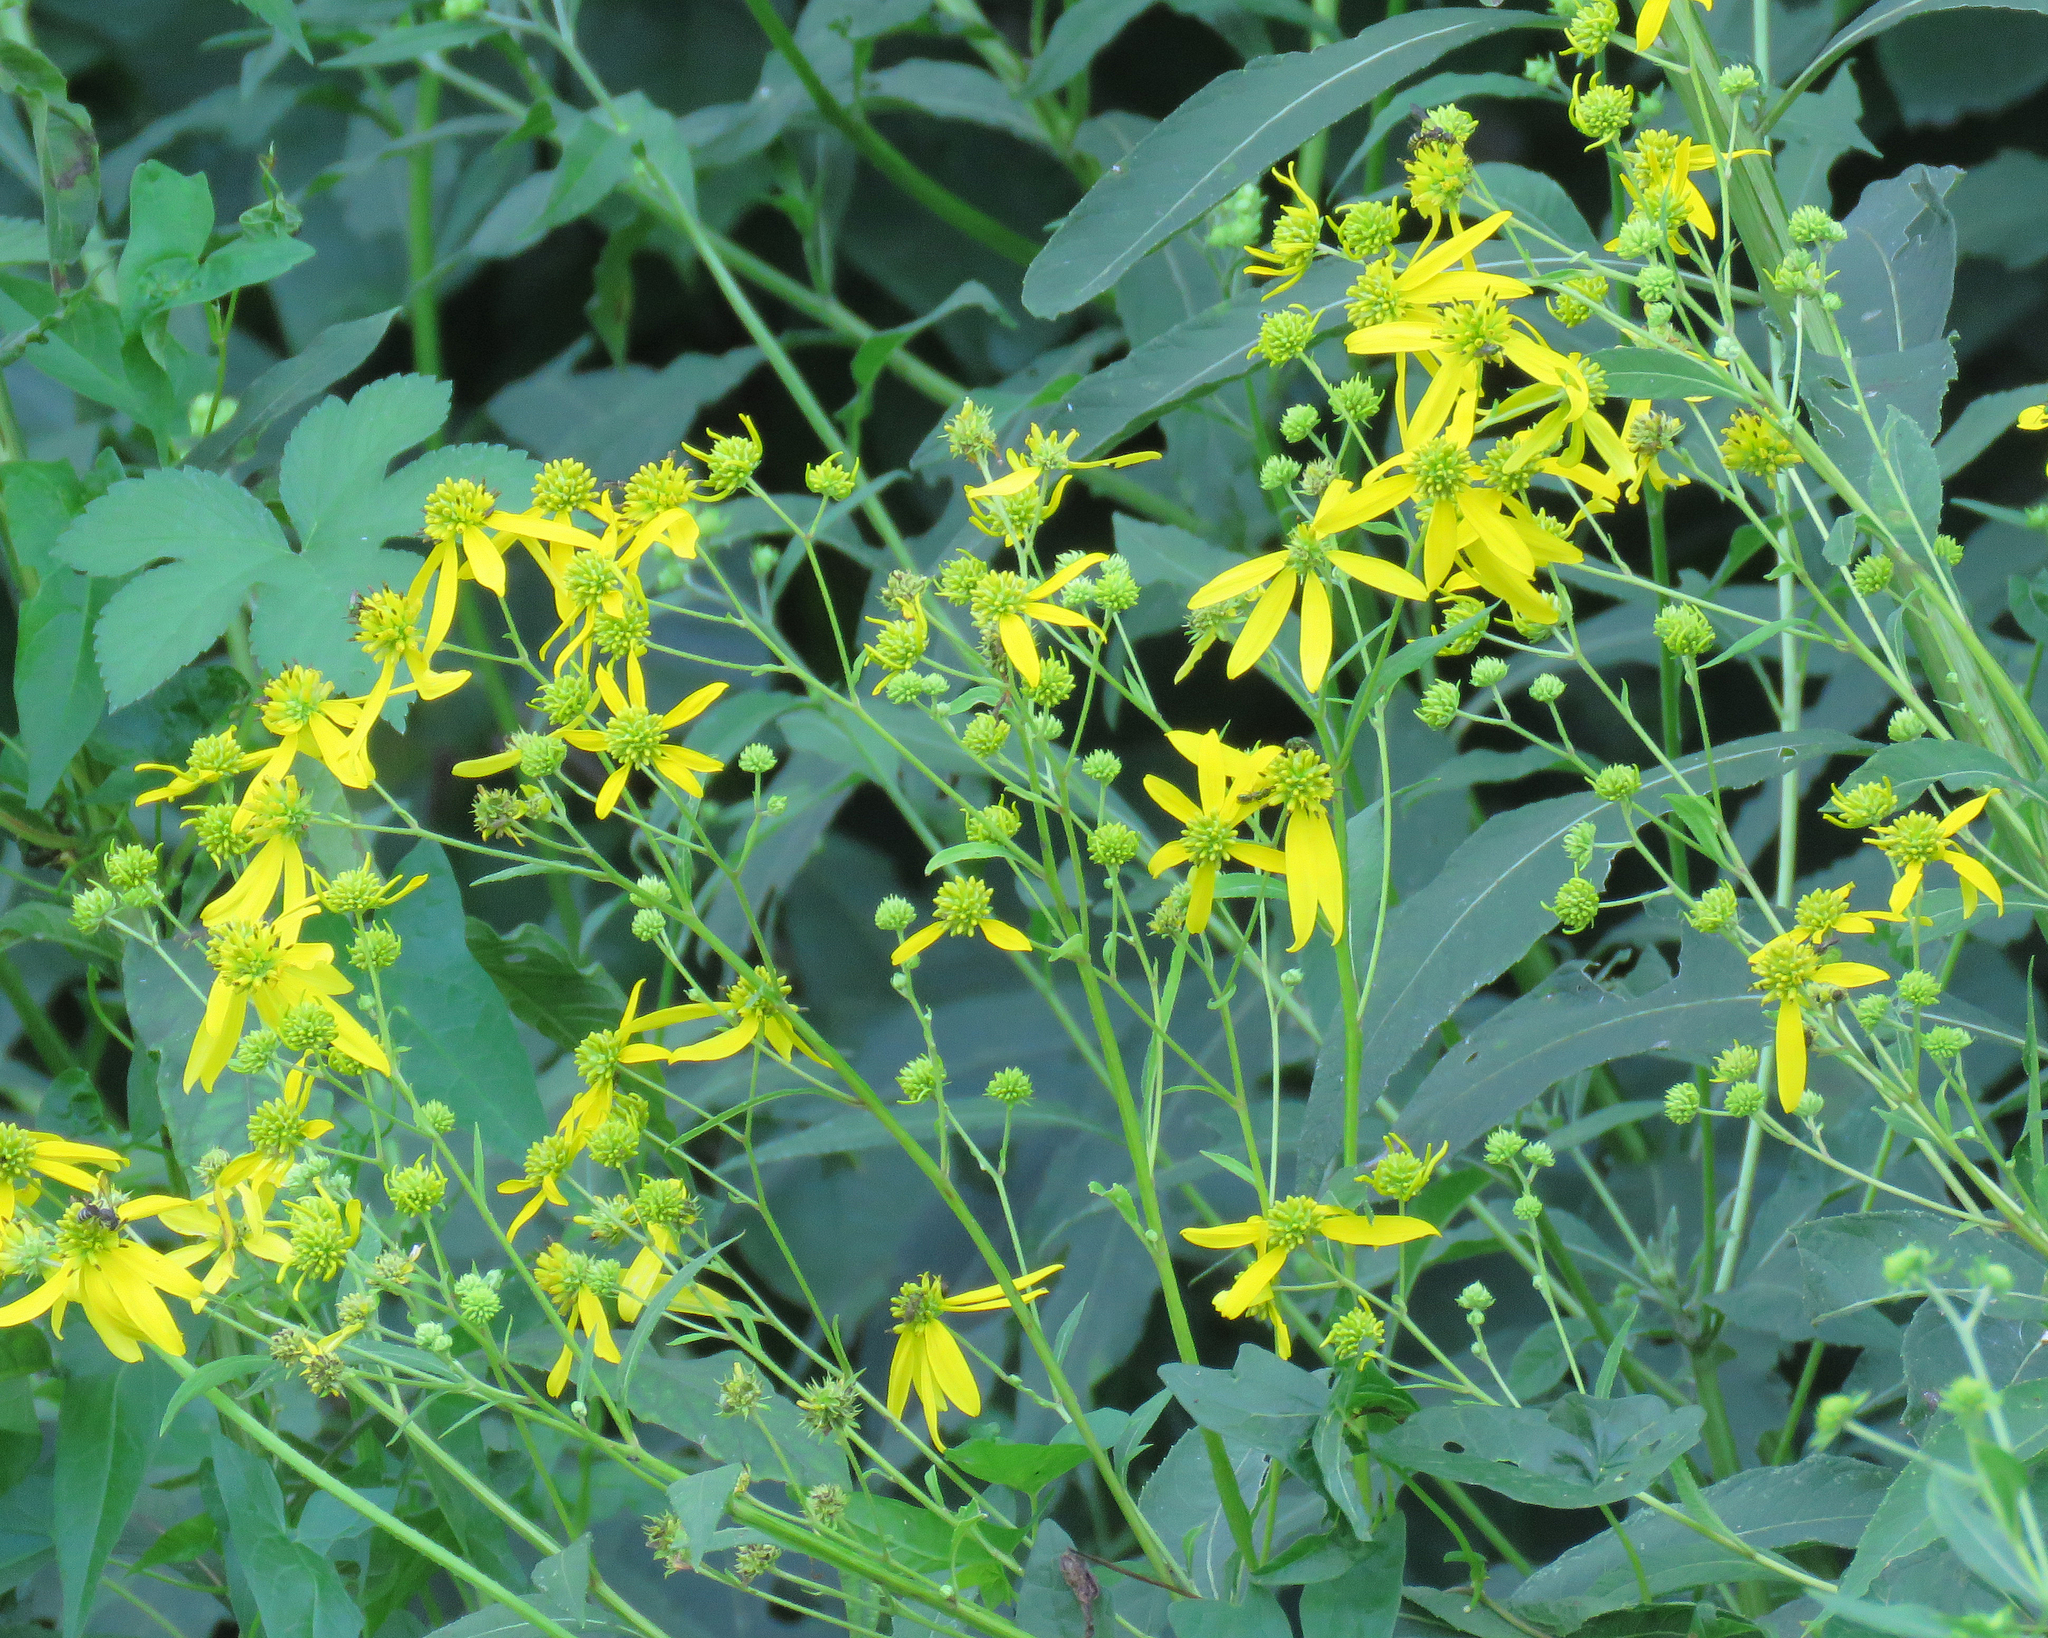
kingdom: Plantae
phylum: Tracheophyta
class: Magnoliopsida
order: Asterales
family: Asteraceae
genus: Verbesina
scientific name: Verbesina alternifolia
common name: Wingstem
